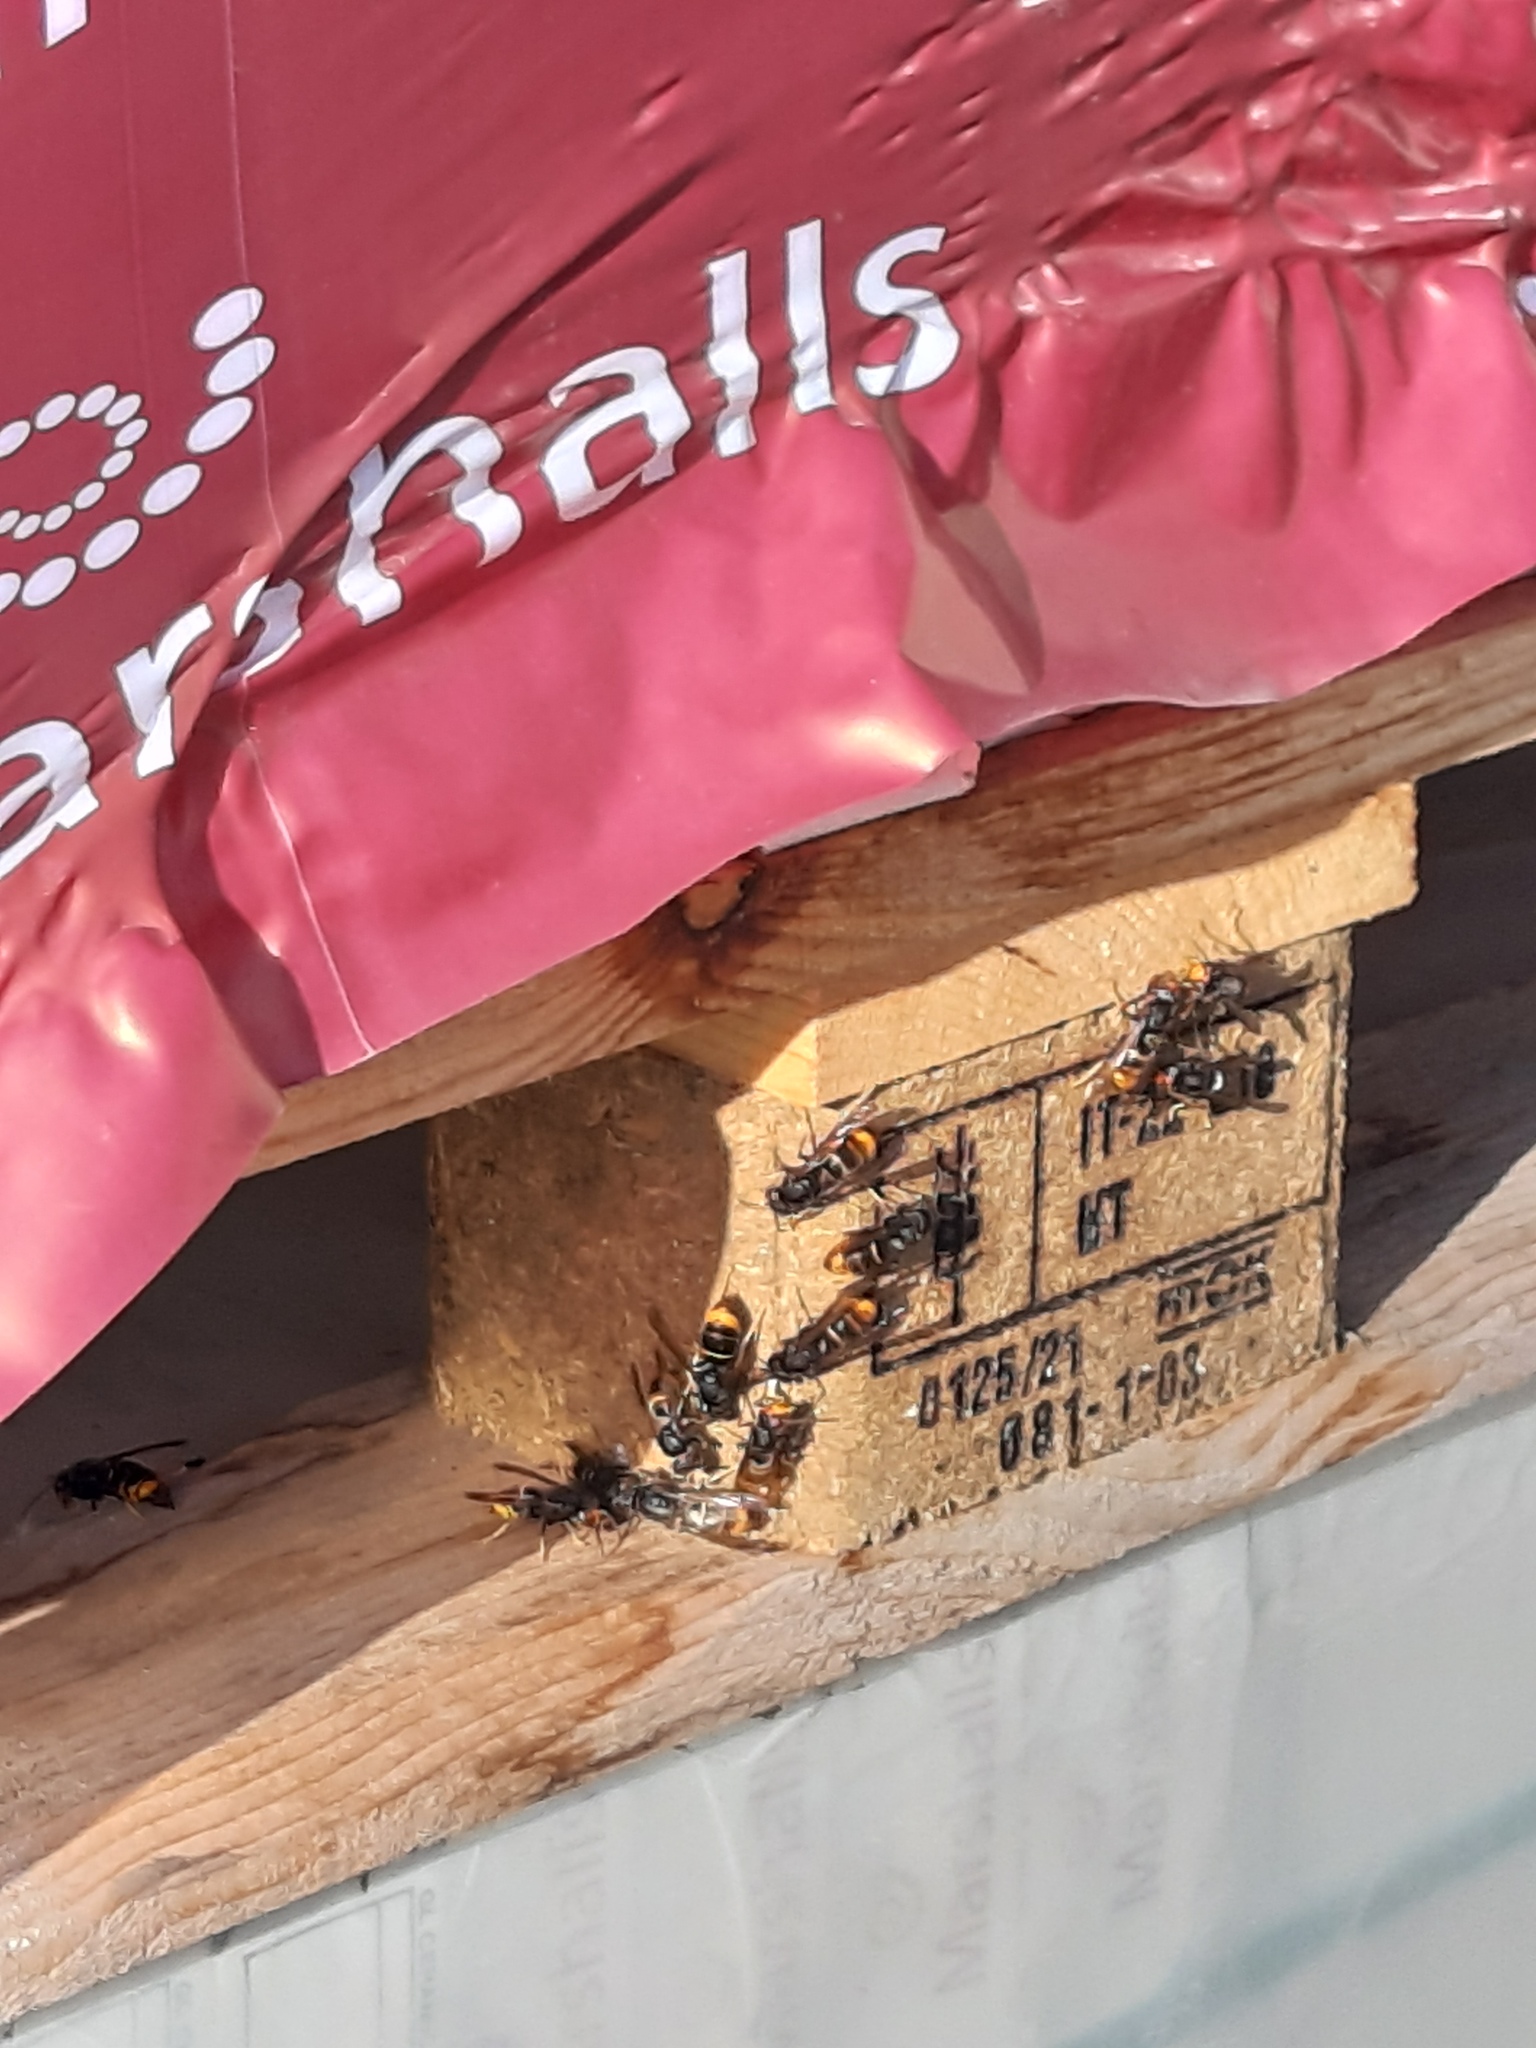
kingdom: Animalia
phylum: Arthropoda
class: Insecta
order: Hymenoptera
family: Vespidae
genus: Vespa
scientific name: Vespa velutina
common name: Asian hornet
